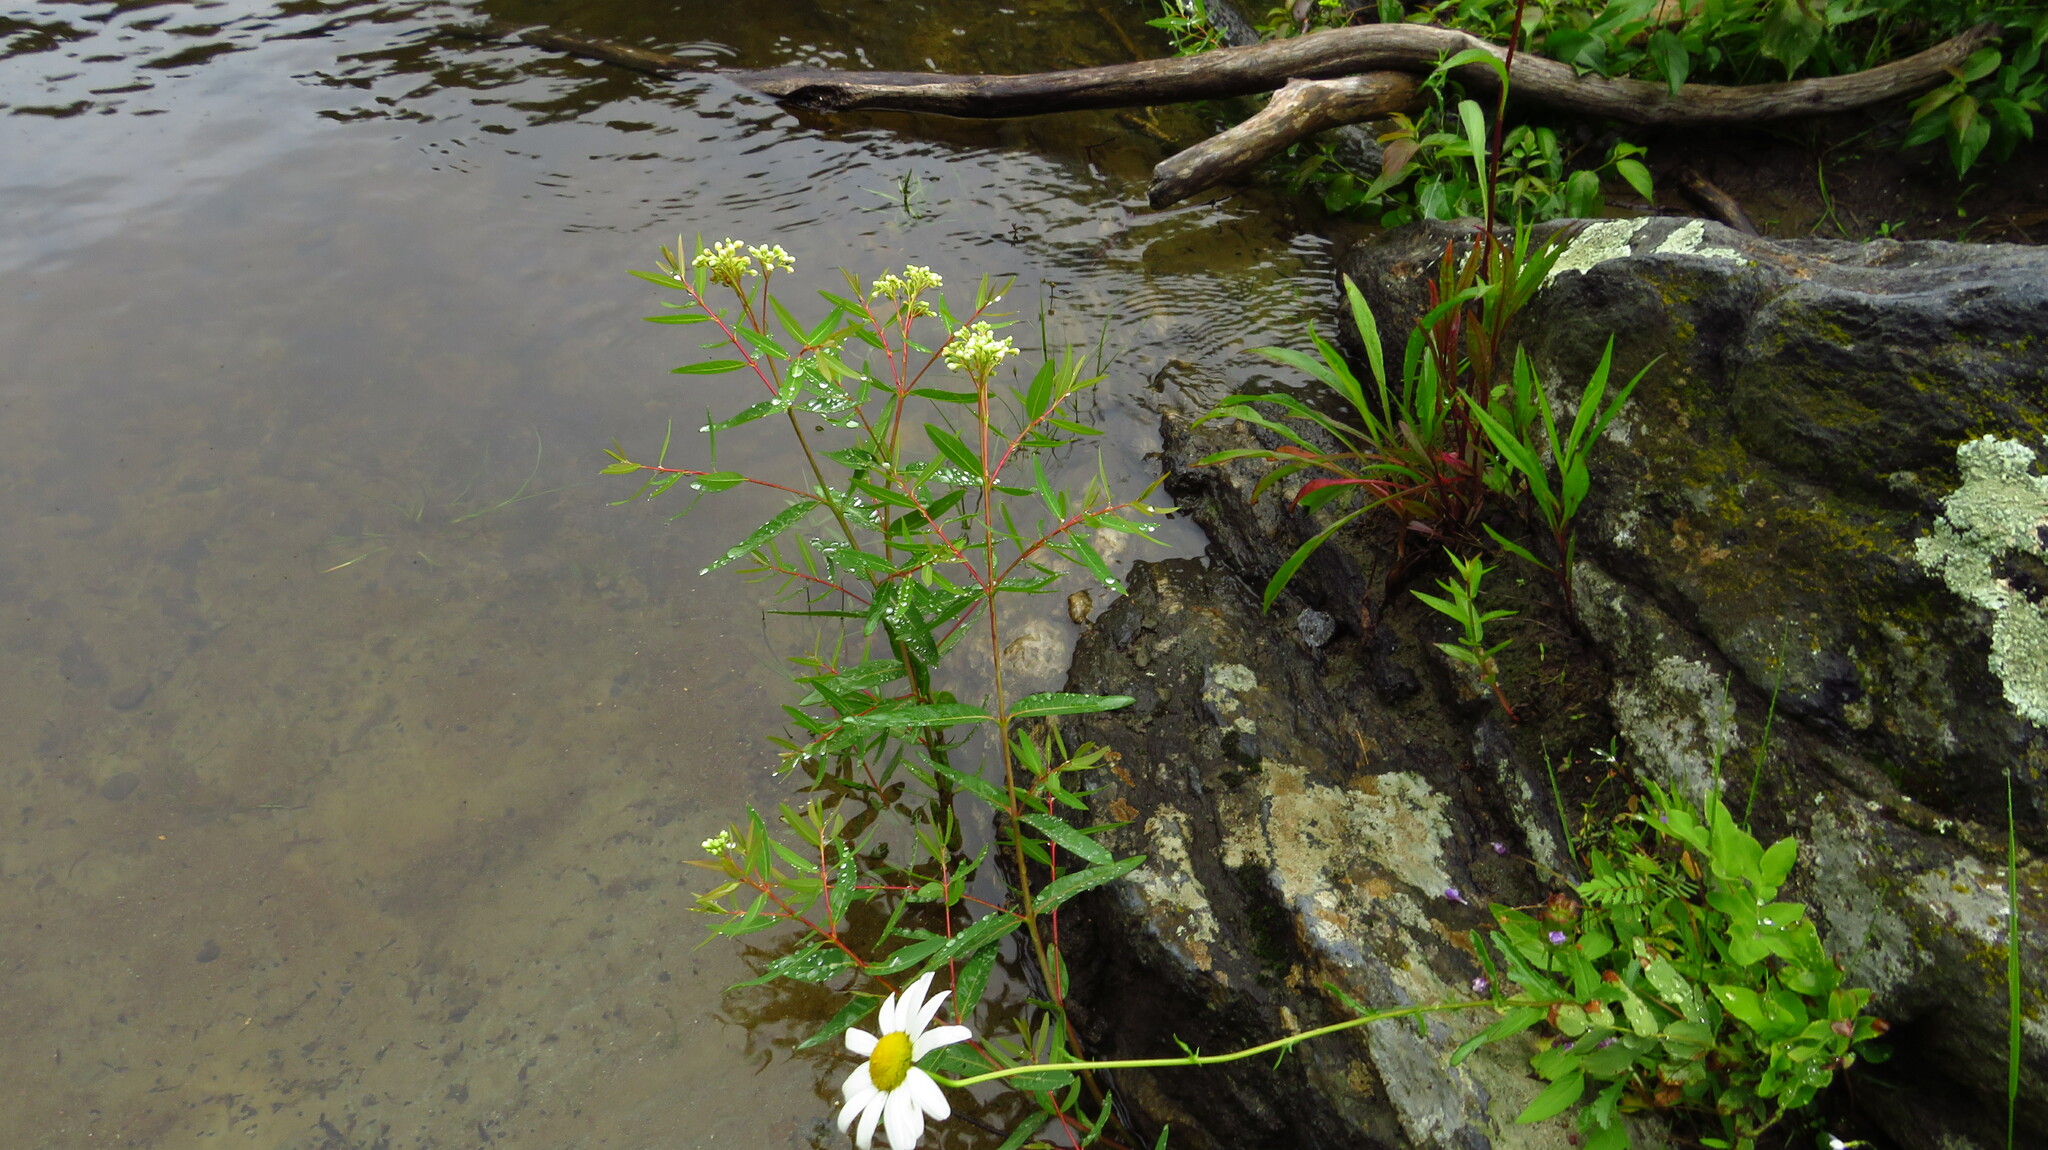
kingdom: Plantae
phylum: Tracheophyta
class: Magnoliopsida
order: Gentianales
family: Apocynaceae
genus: Apocynum
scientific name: Apocynum cannabinum
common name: Hemp dogbane
